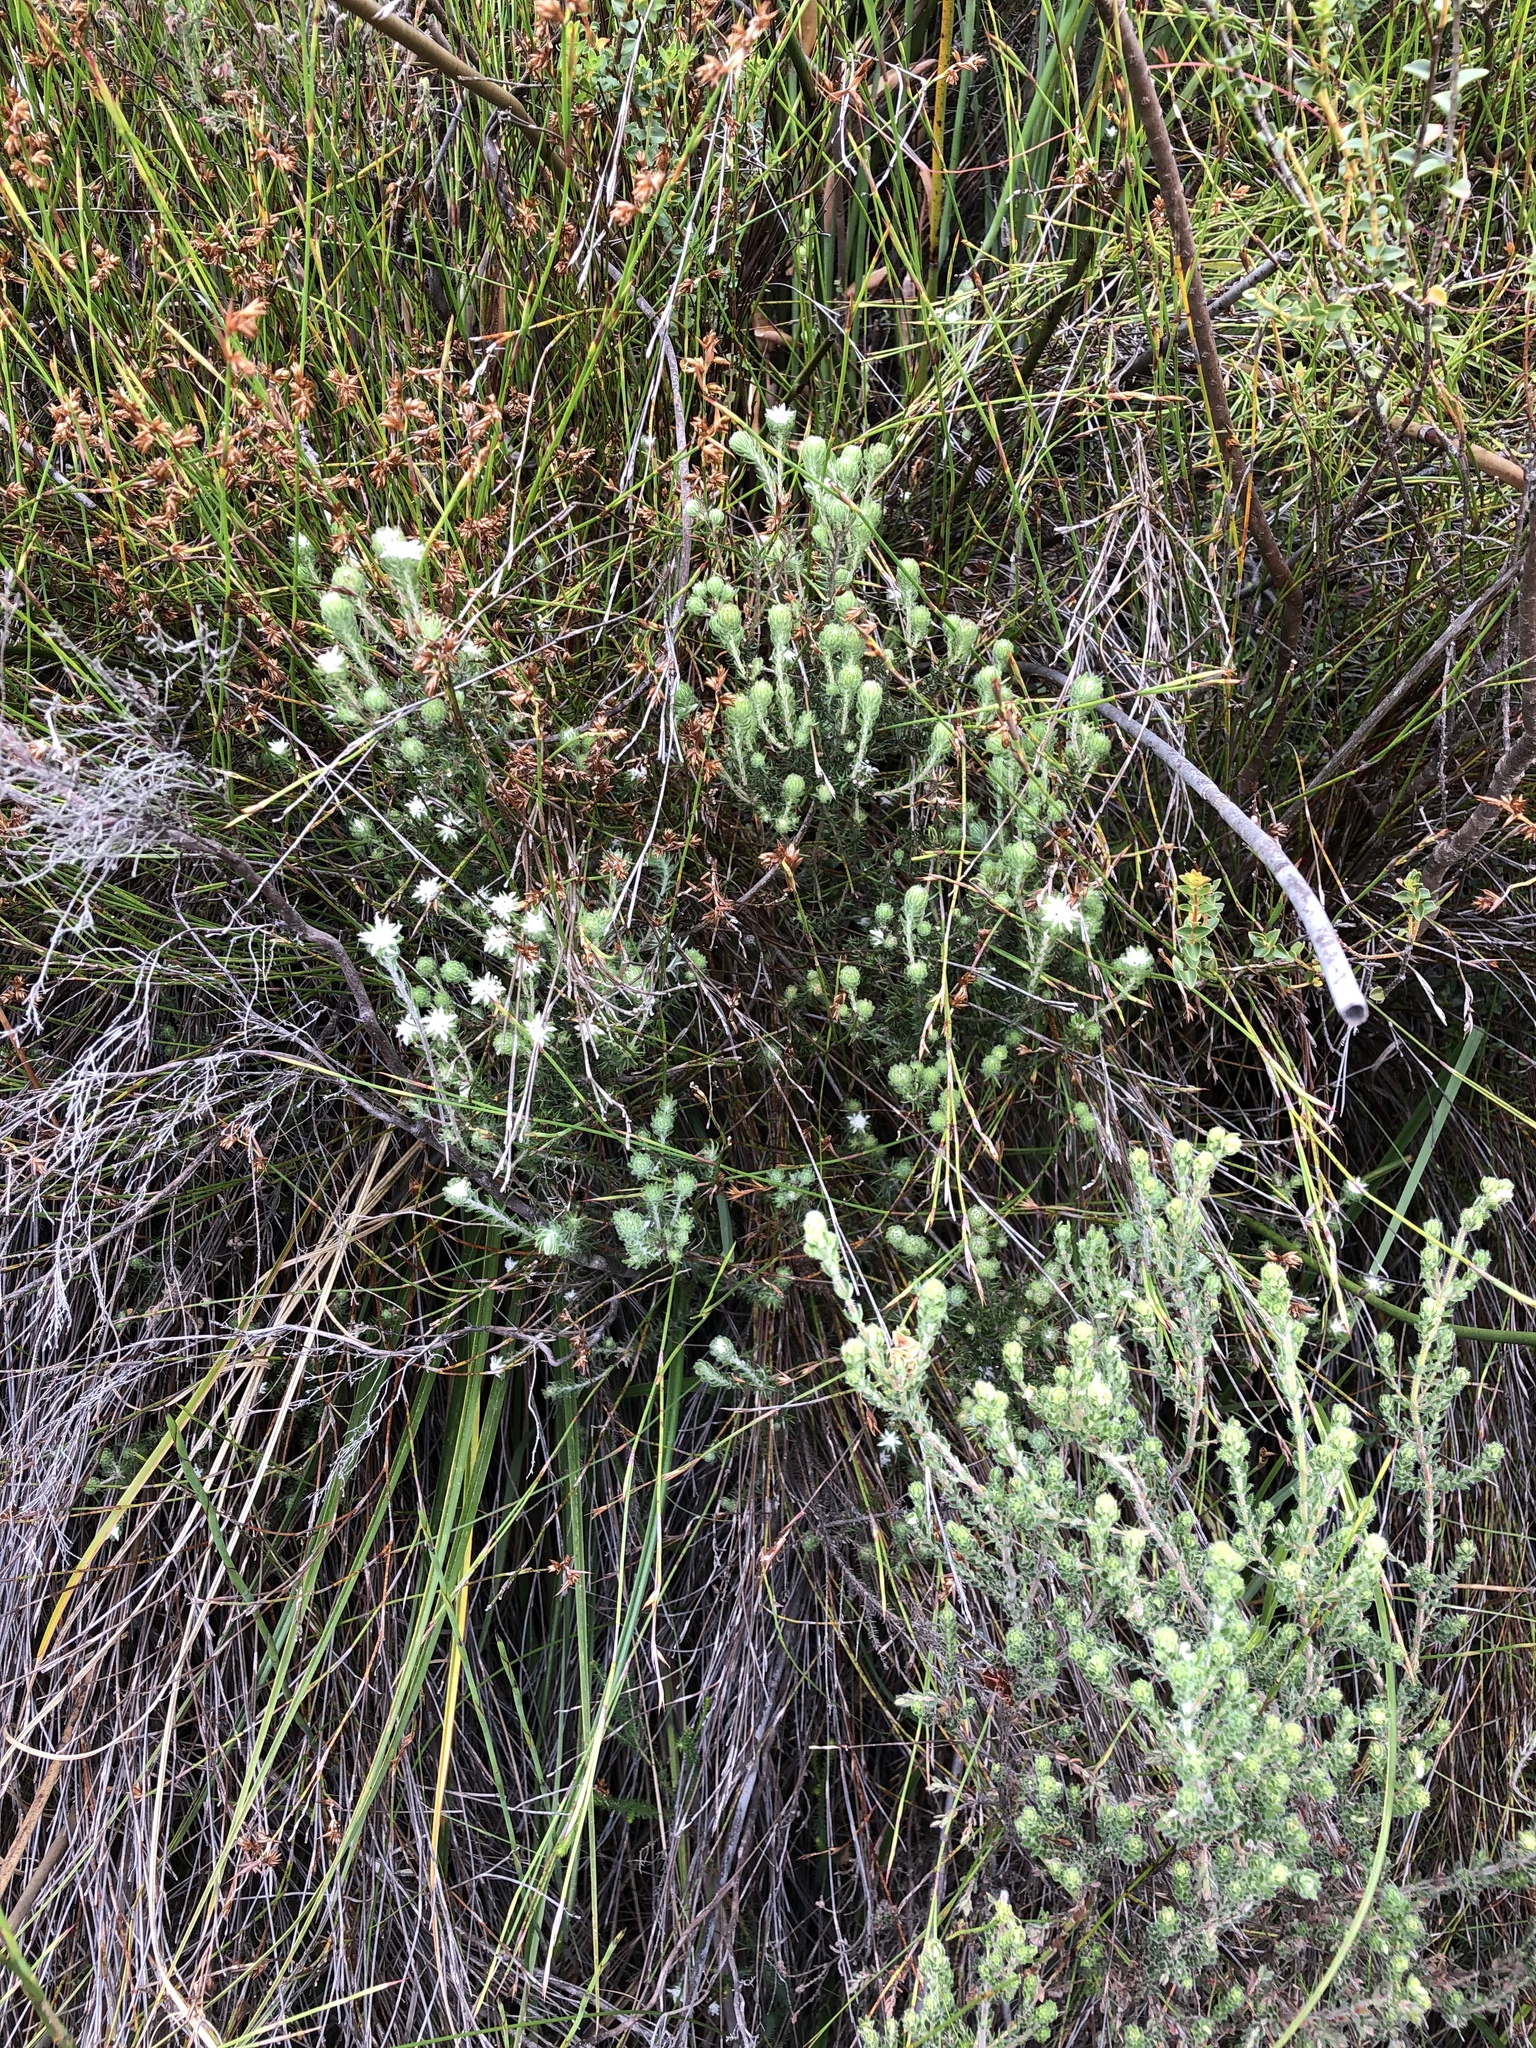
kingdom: Plantae
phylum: Tracheophyta
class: Magnoliopsida
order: Rosales
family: Rhamnaceae
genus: Phylica
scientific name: Phylica keetii
